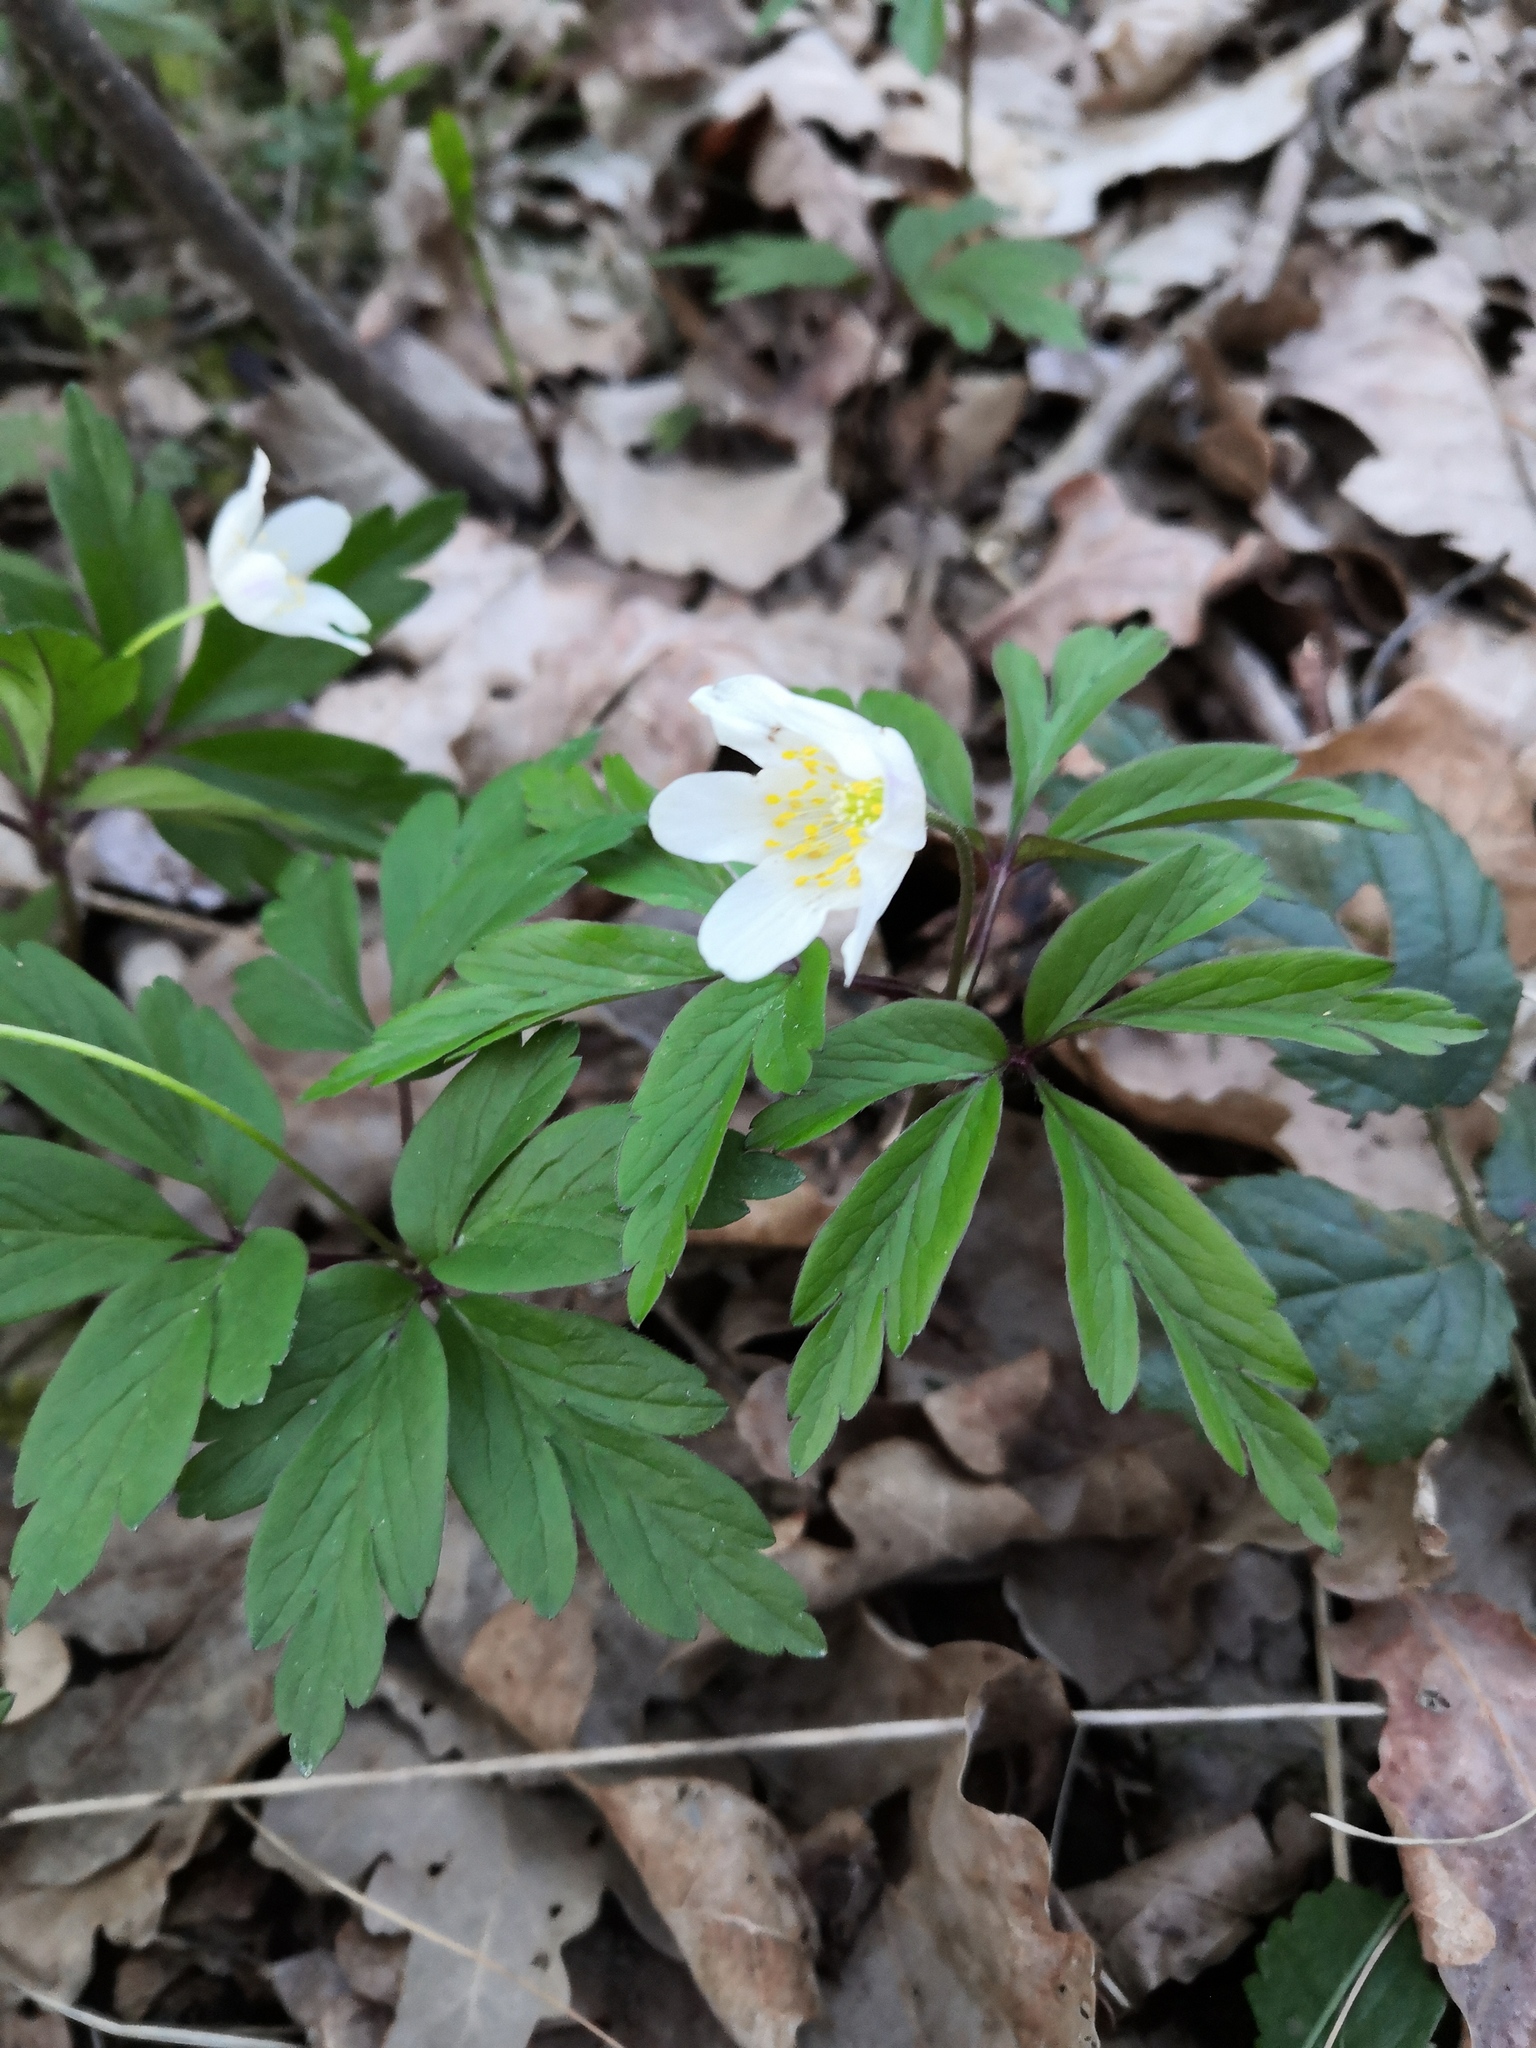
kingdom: Plantae
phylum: Tracheophyta
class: Magnoliopsida
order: Ranunculales
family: Ranunculaceae
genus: Anemone
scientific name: Anemone nemorosa
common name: Wood anemone
